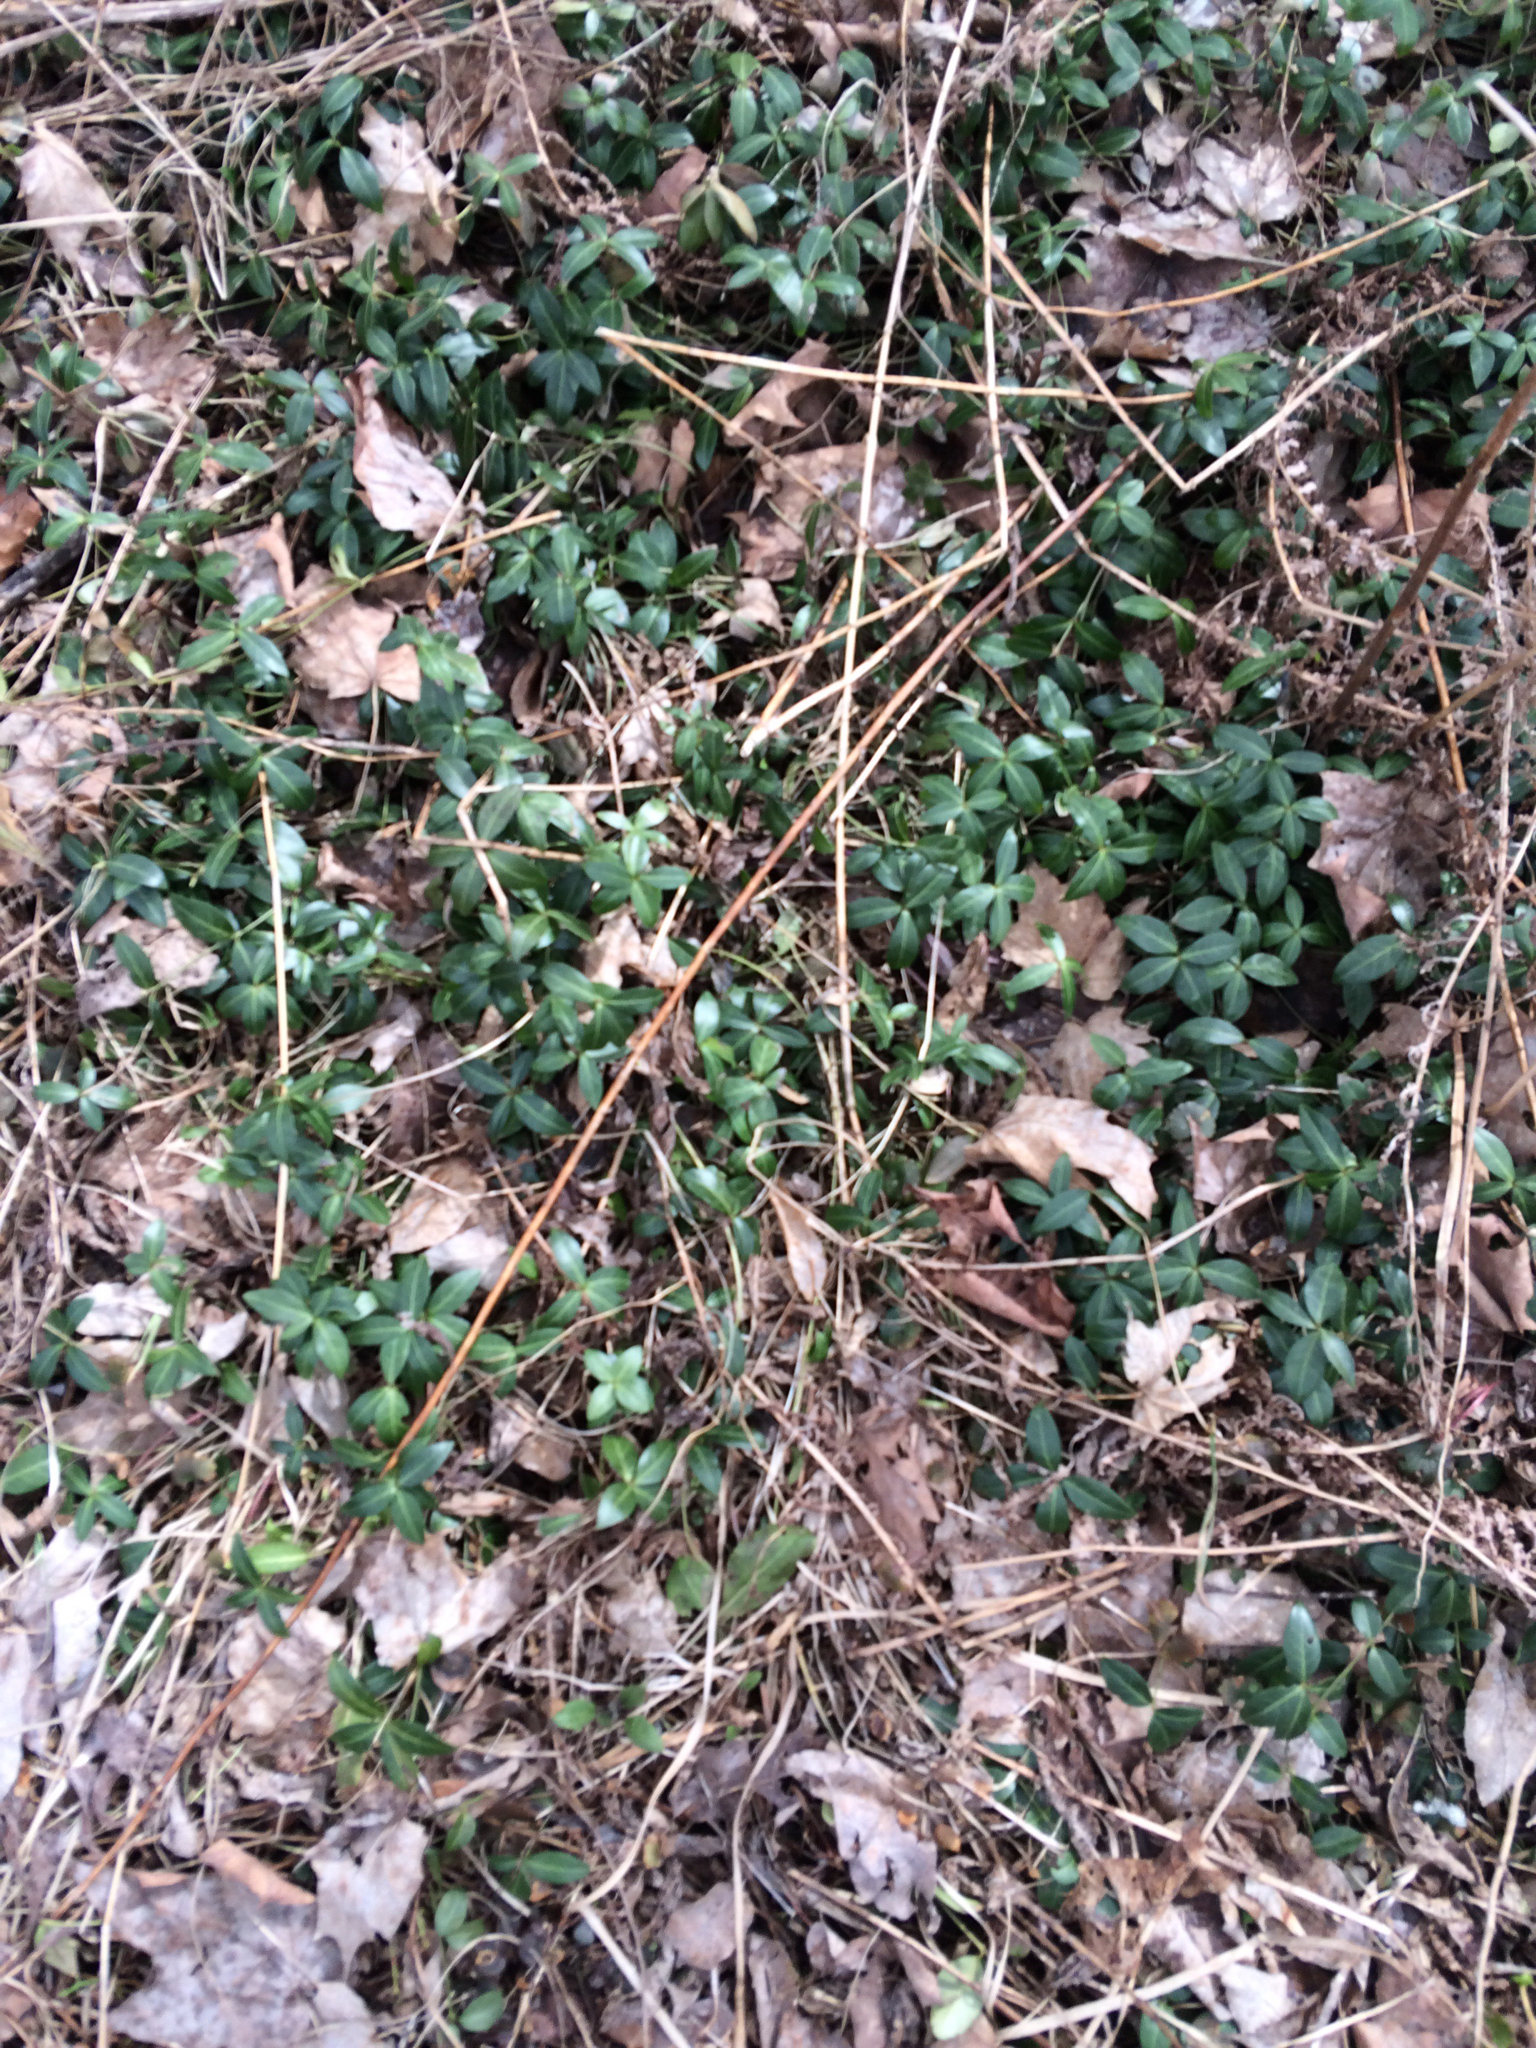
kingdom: Plantae
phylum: Tracheophyta
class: Magnoliopsida
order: Gentianales
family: Apocynaceae
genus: Vinca
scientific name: Vinca minor
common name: Lesser periwinkle
